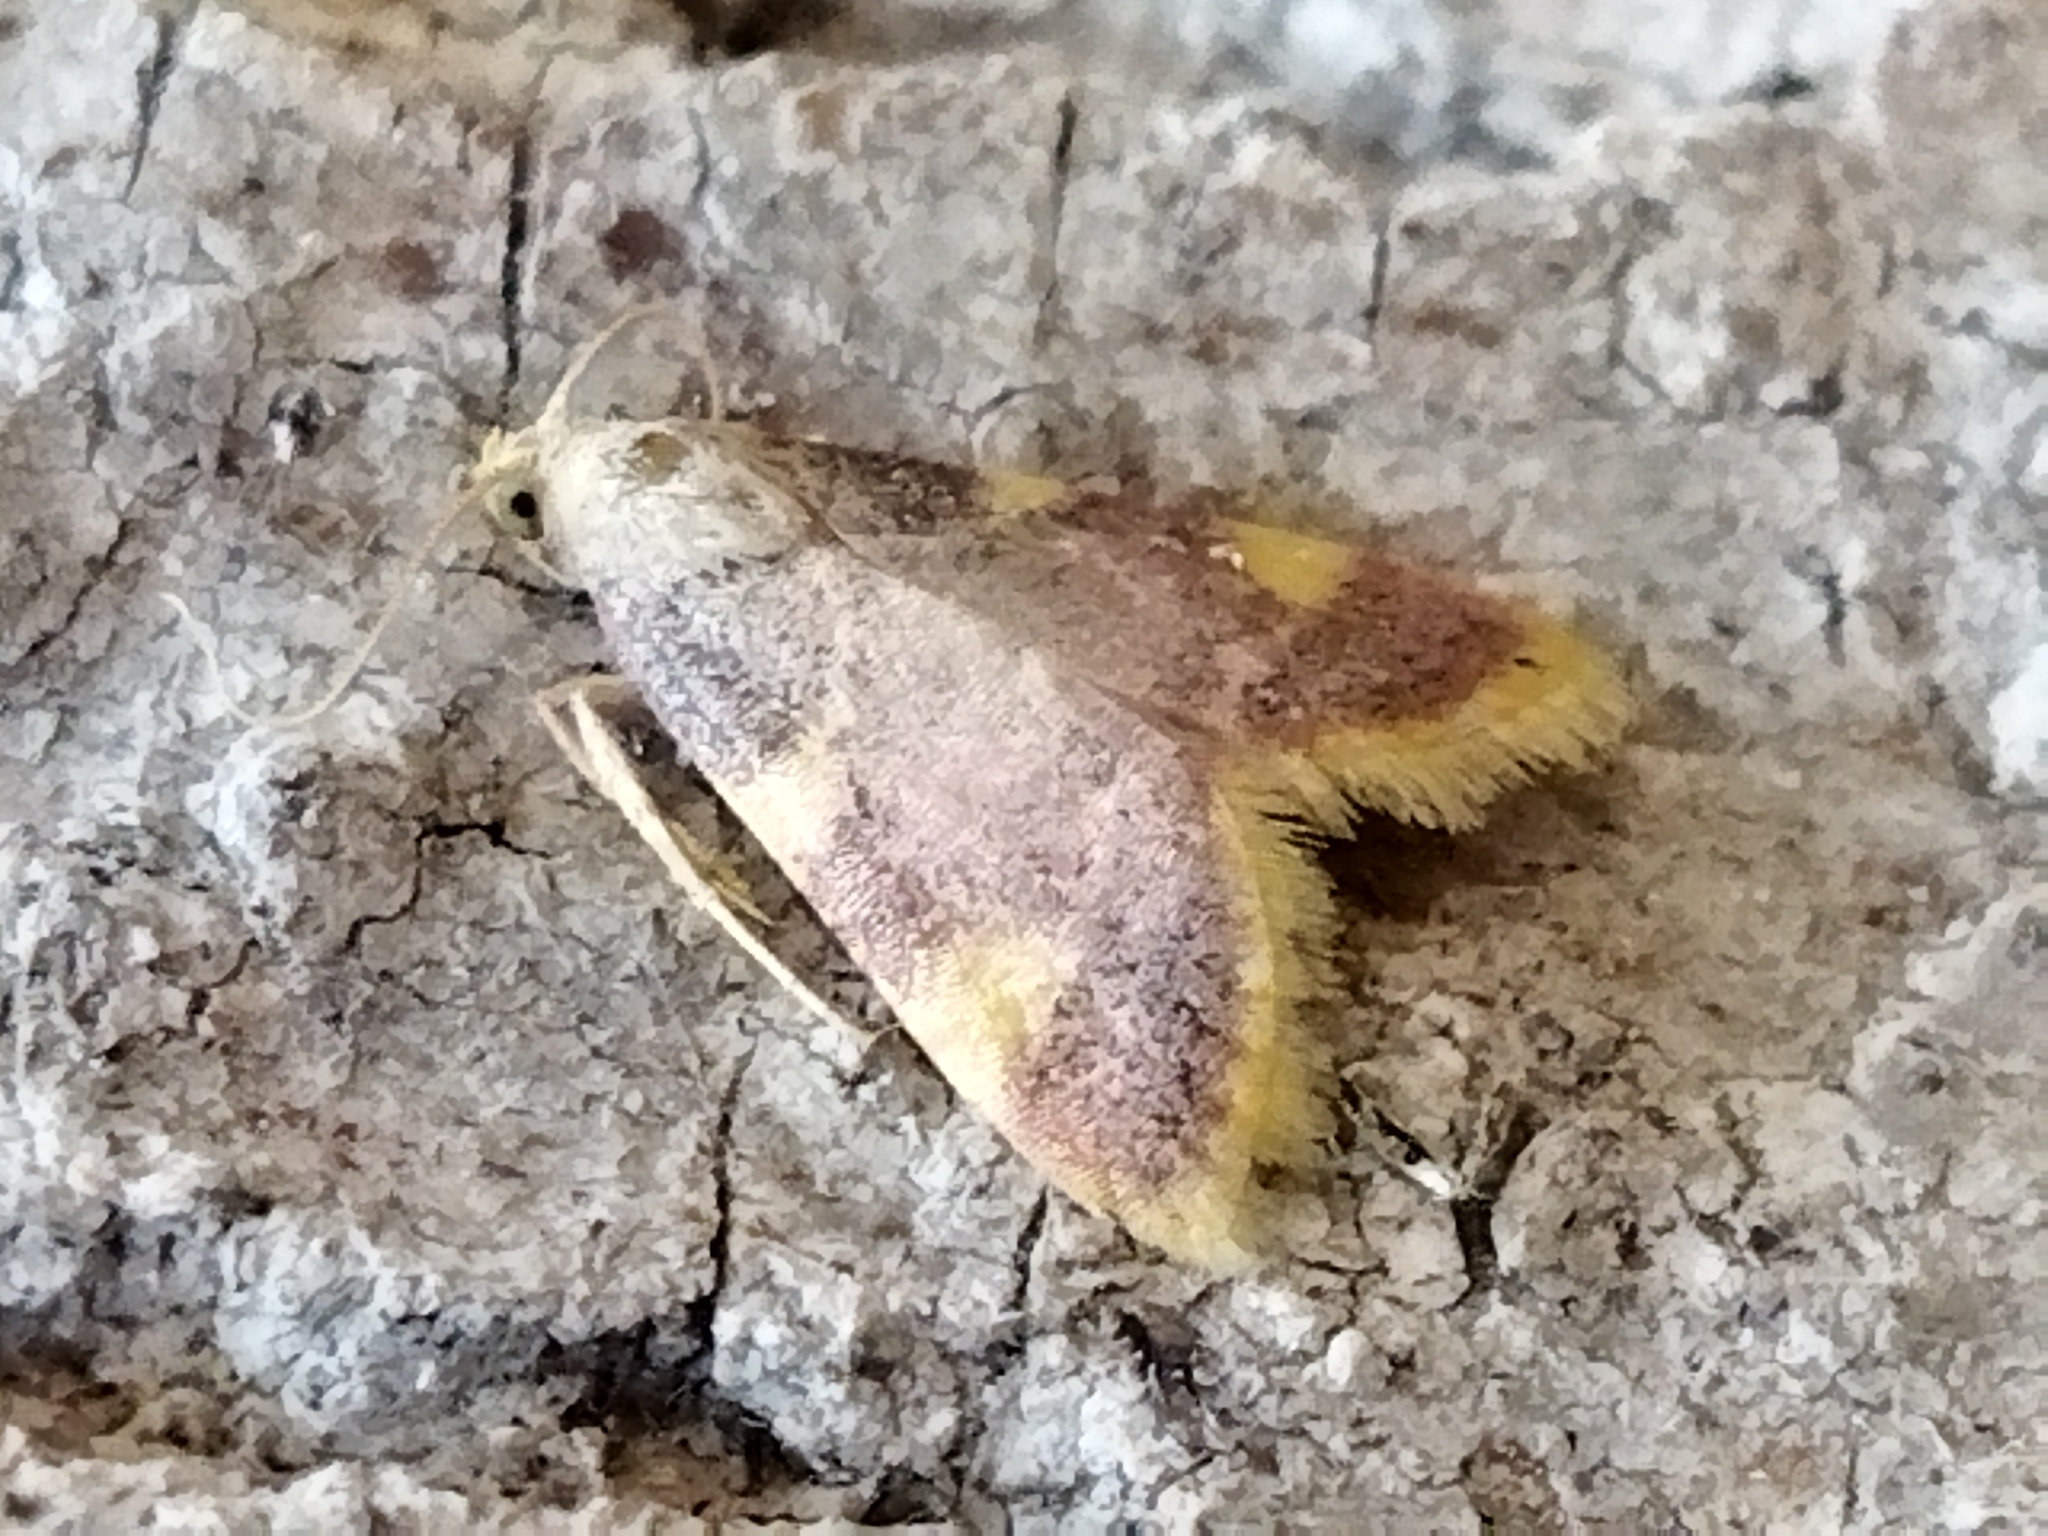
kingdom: Animalia
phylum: Arthropoda
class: Insecta
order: Lepidoptera
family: Pyralidae
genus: Hypsopygia
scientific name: Hypsopygia costalis
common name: Gold triangle
